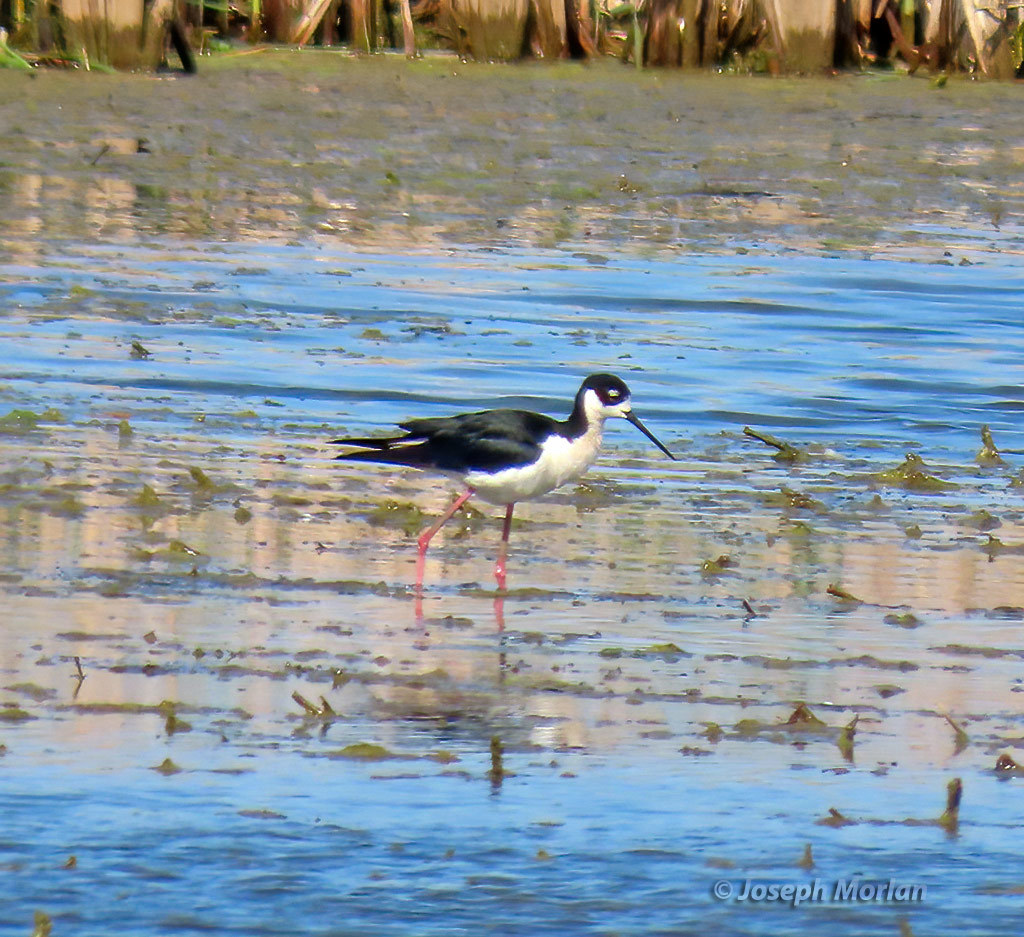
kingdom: Animalia
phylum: Chordata
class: Aves
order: Charadriiformes
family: Recurvirostridae
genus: Himantopus
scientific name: Himantopus mexicanus
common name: Black-necked stilt
